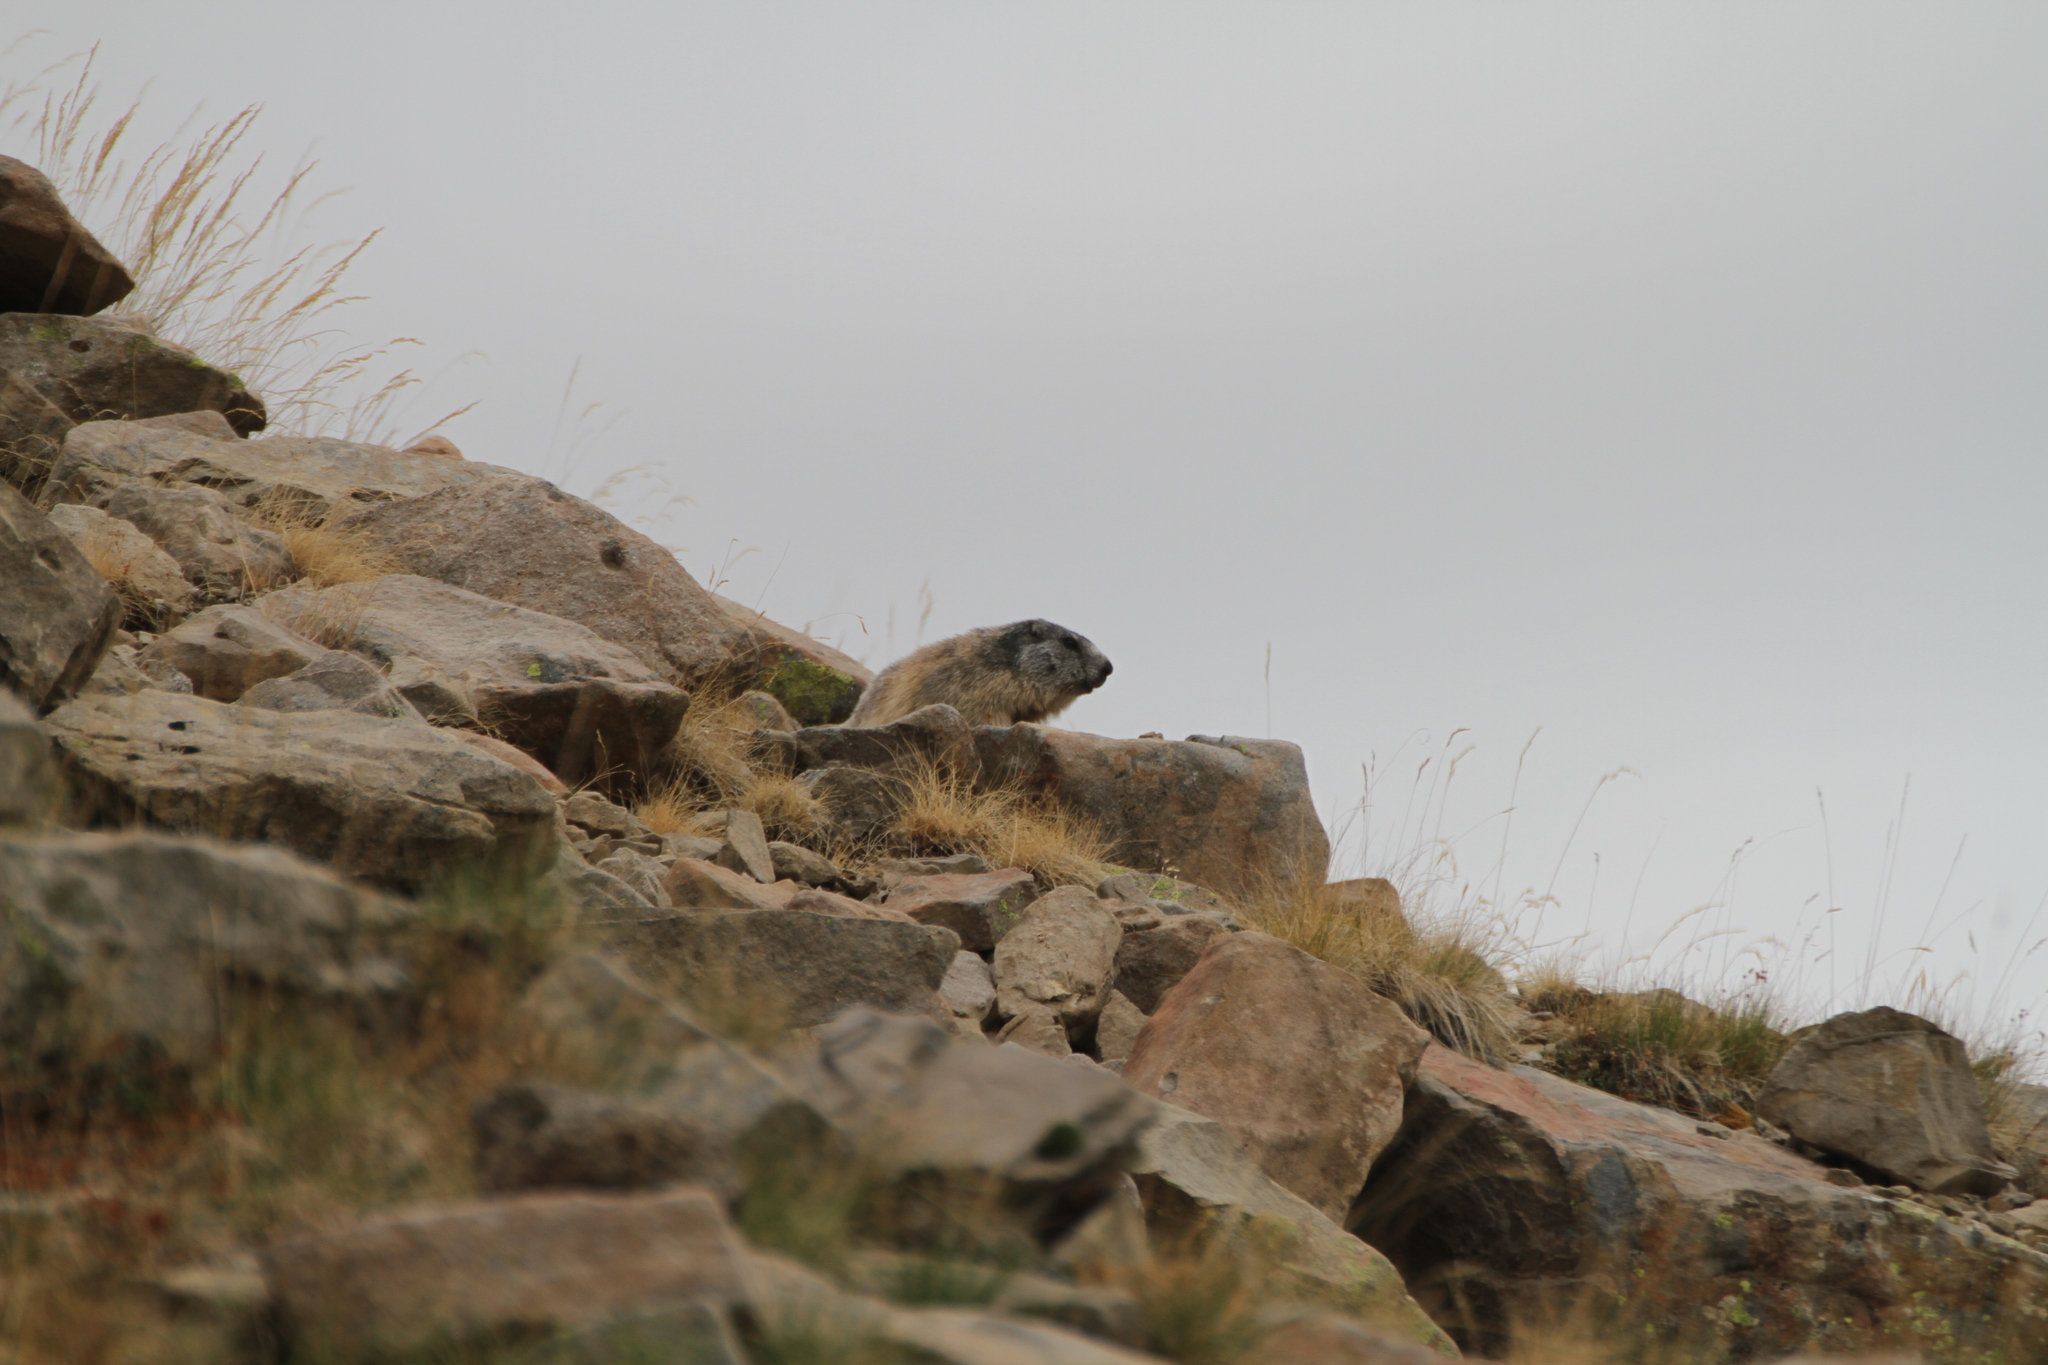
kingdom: Animalia
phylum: Chordata
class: Mammalia
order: Rodentia
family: Sciuridae
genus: Marmota
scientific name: Marmota marmota
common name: Alpine marmot
